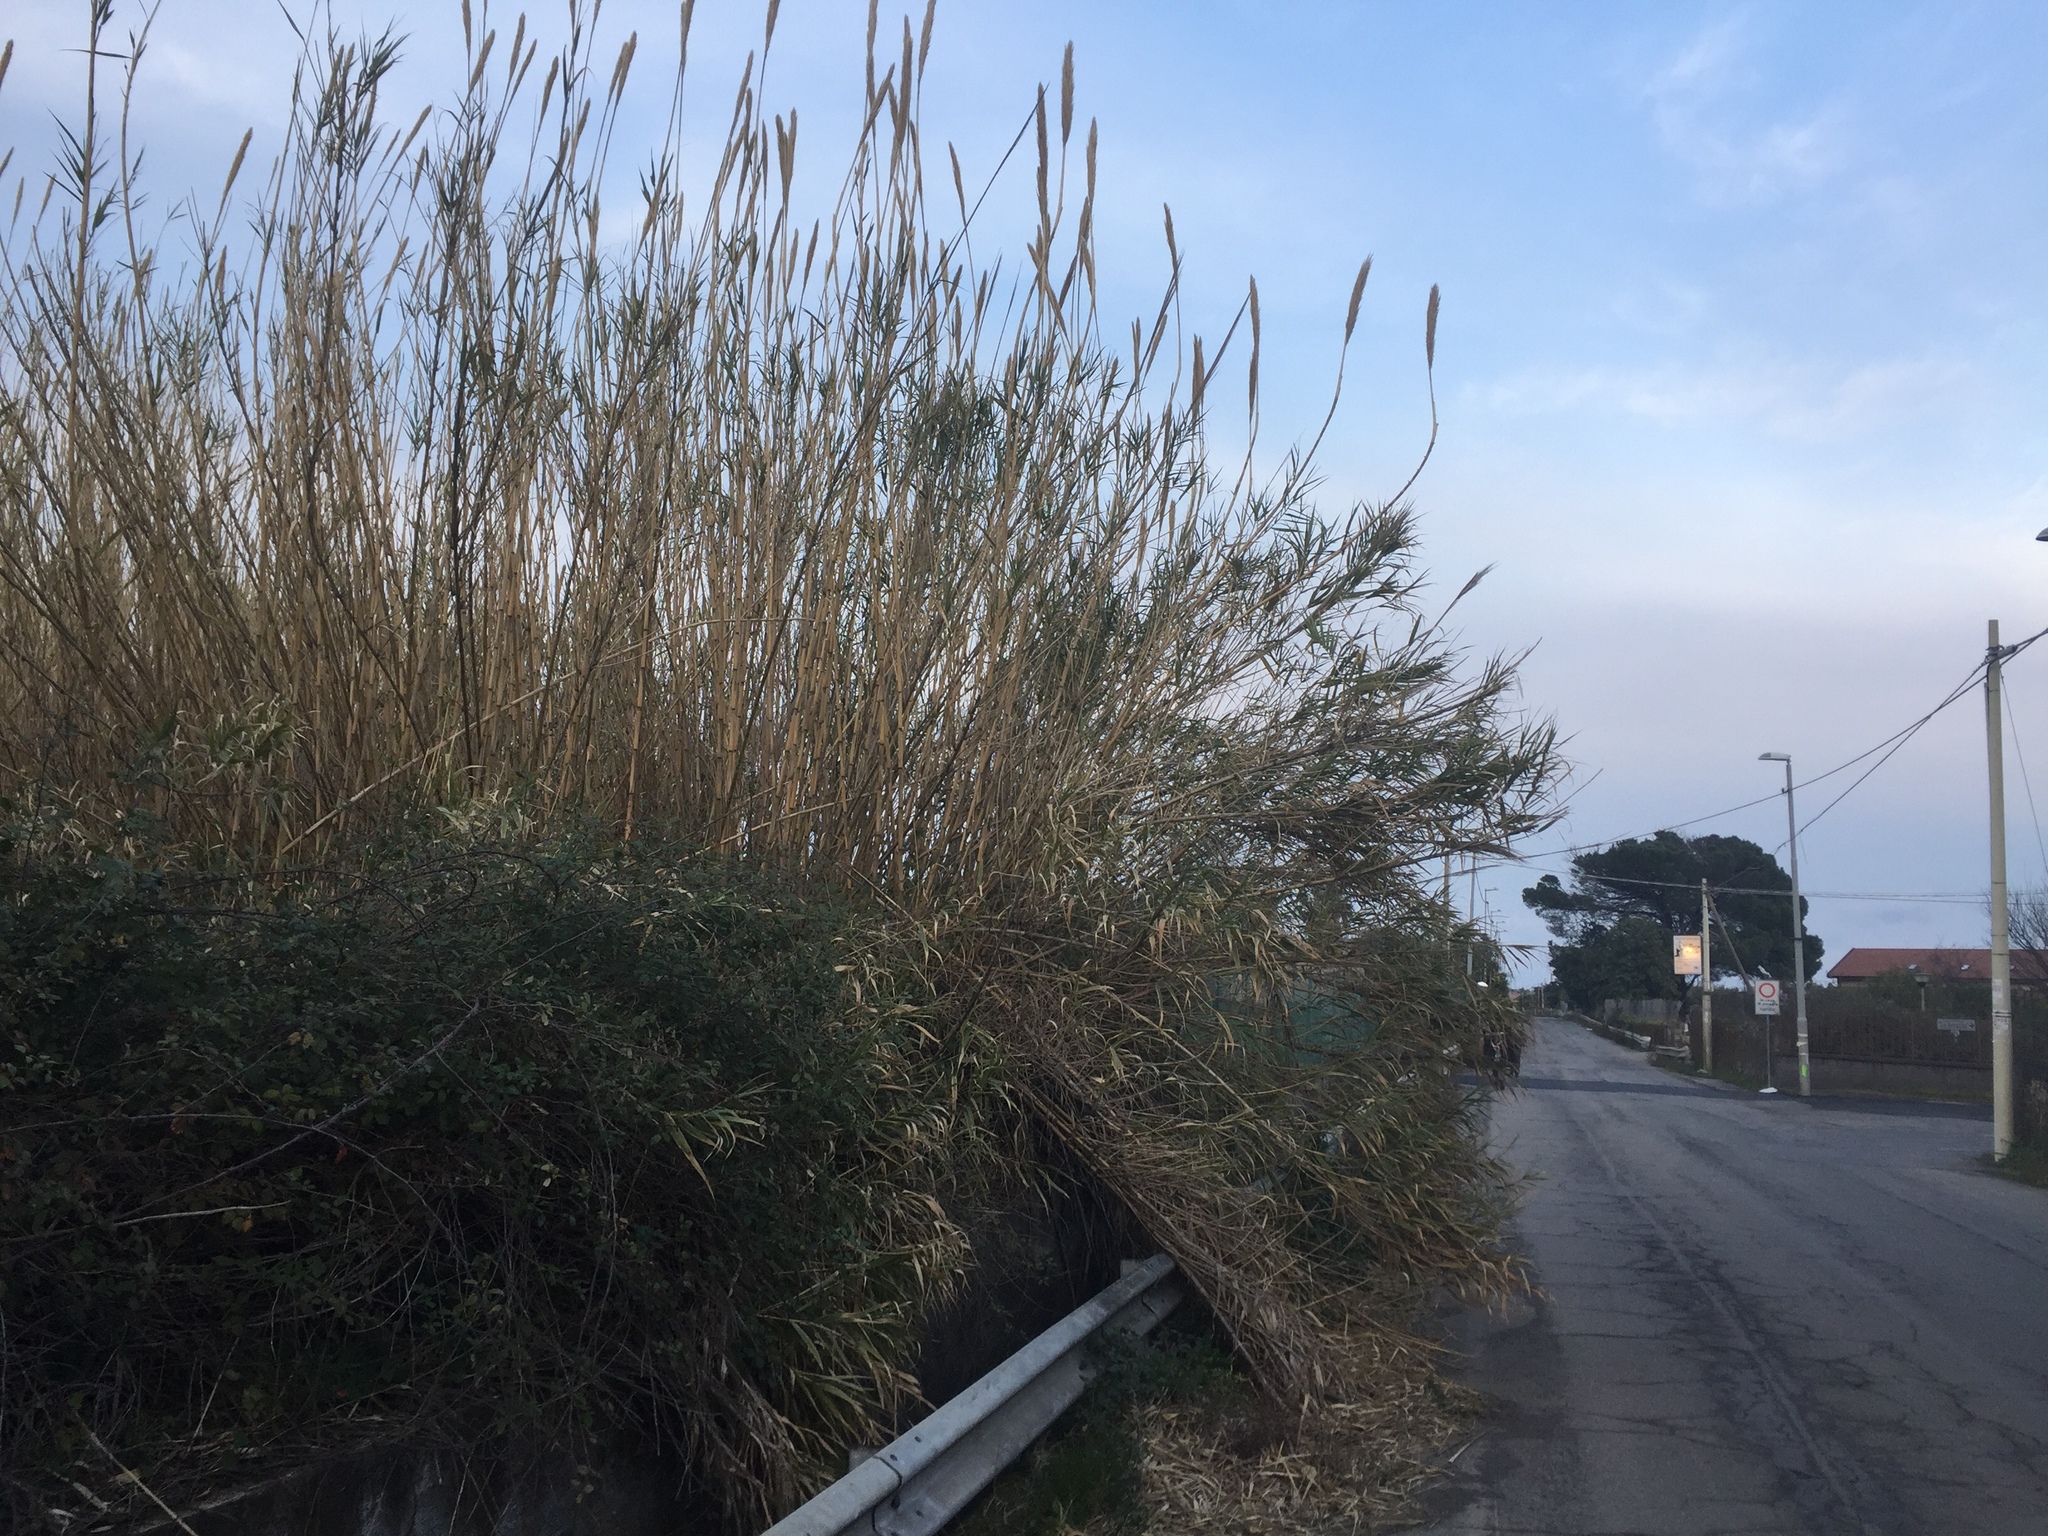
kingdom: Plantae
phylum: Tracheophyta
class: Liliopsida
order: Poales
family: Poaceae
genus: Arundo
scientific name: Arundo donax
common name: Giant reed
